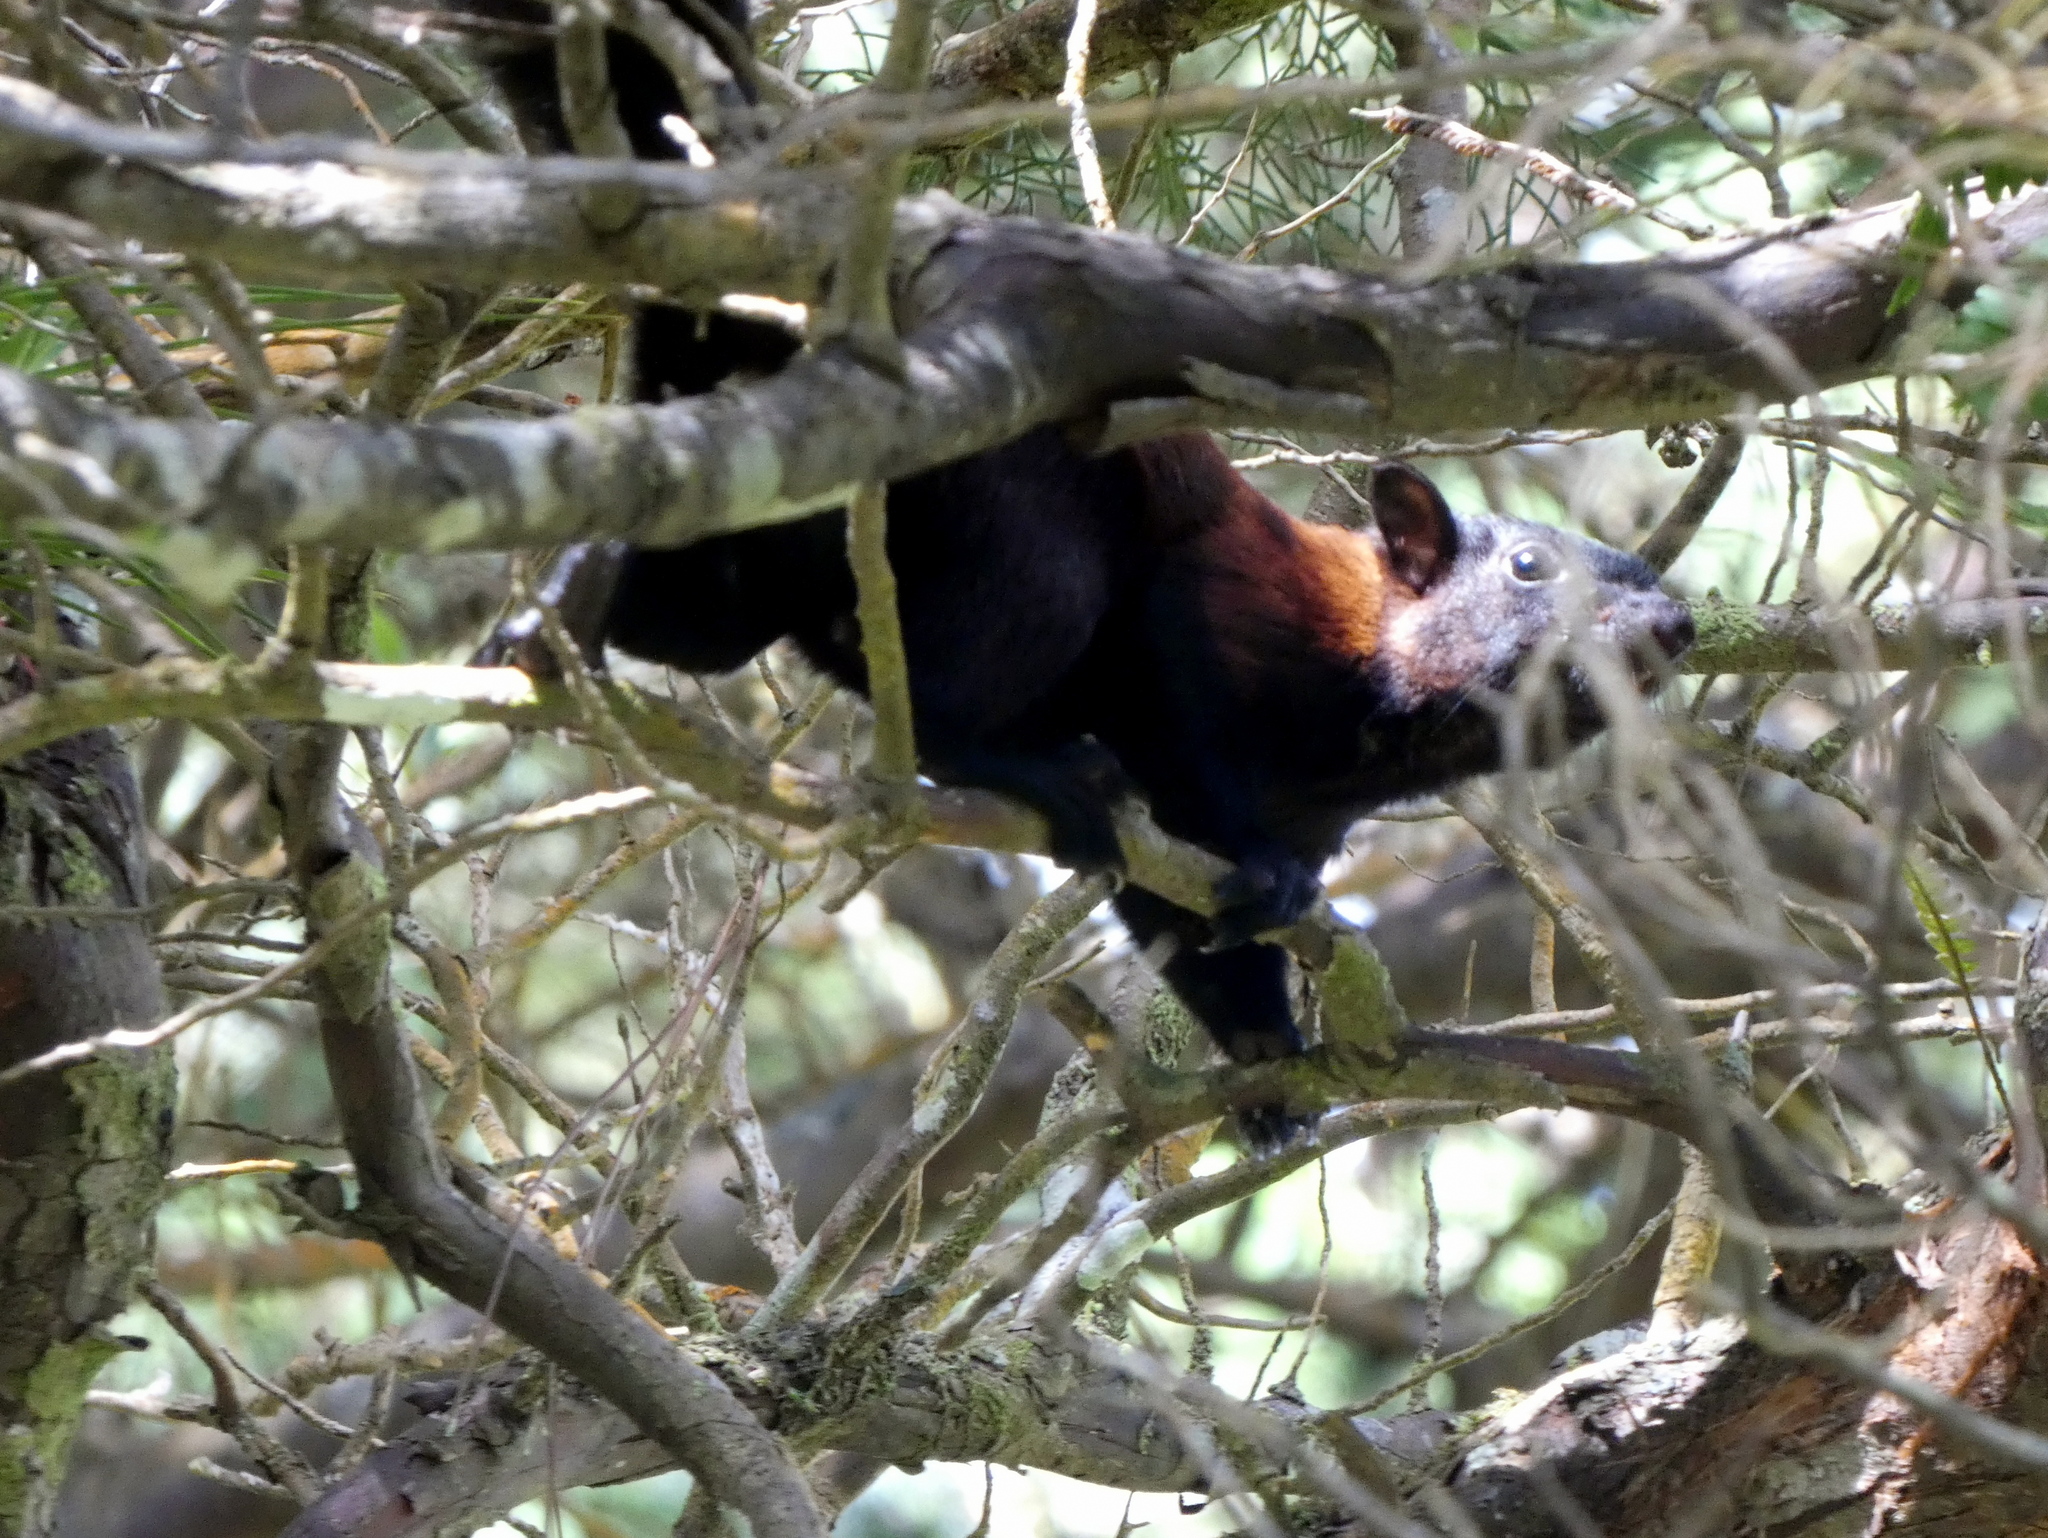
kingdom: Animalia
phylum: Chordata
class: Mammalia
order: Rodentia
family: Sciuridae
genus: Sciurus
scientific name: Sciurus variegatoides
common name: Variegated squirrel
